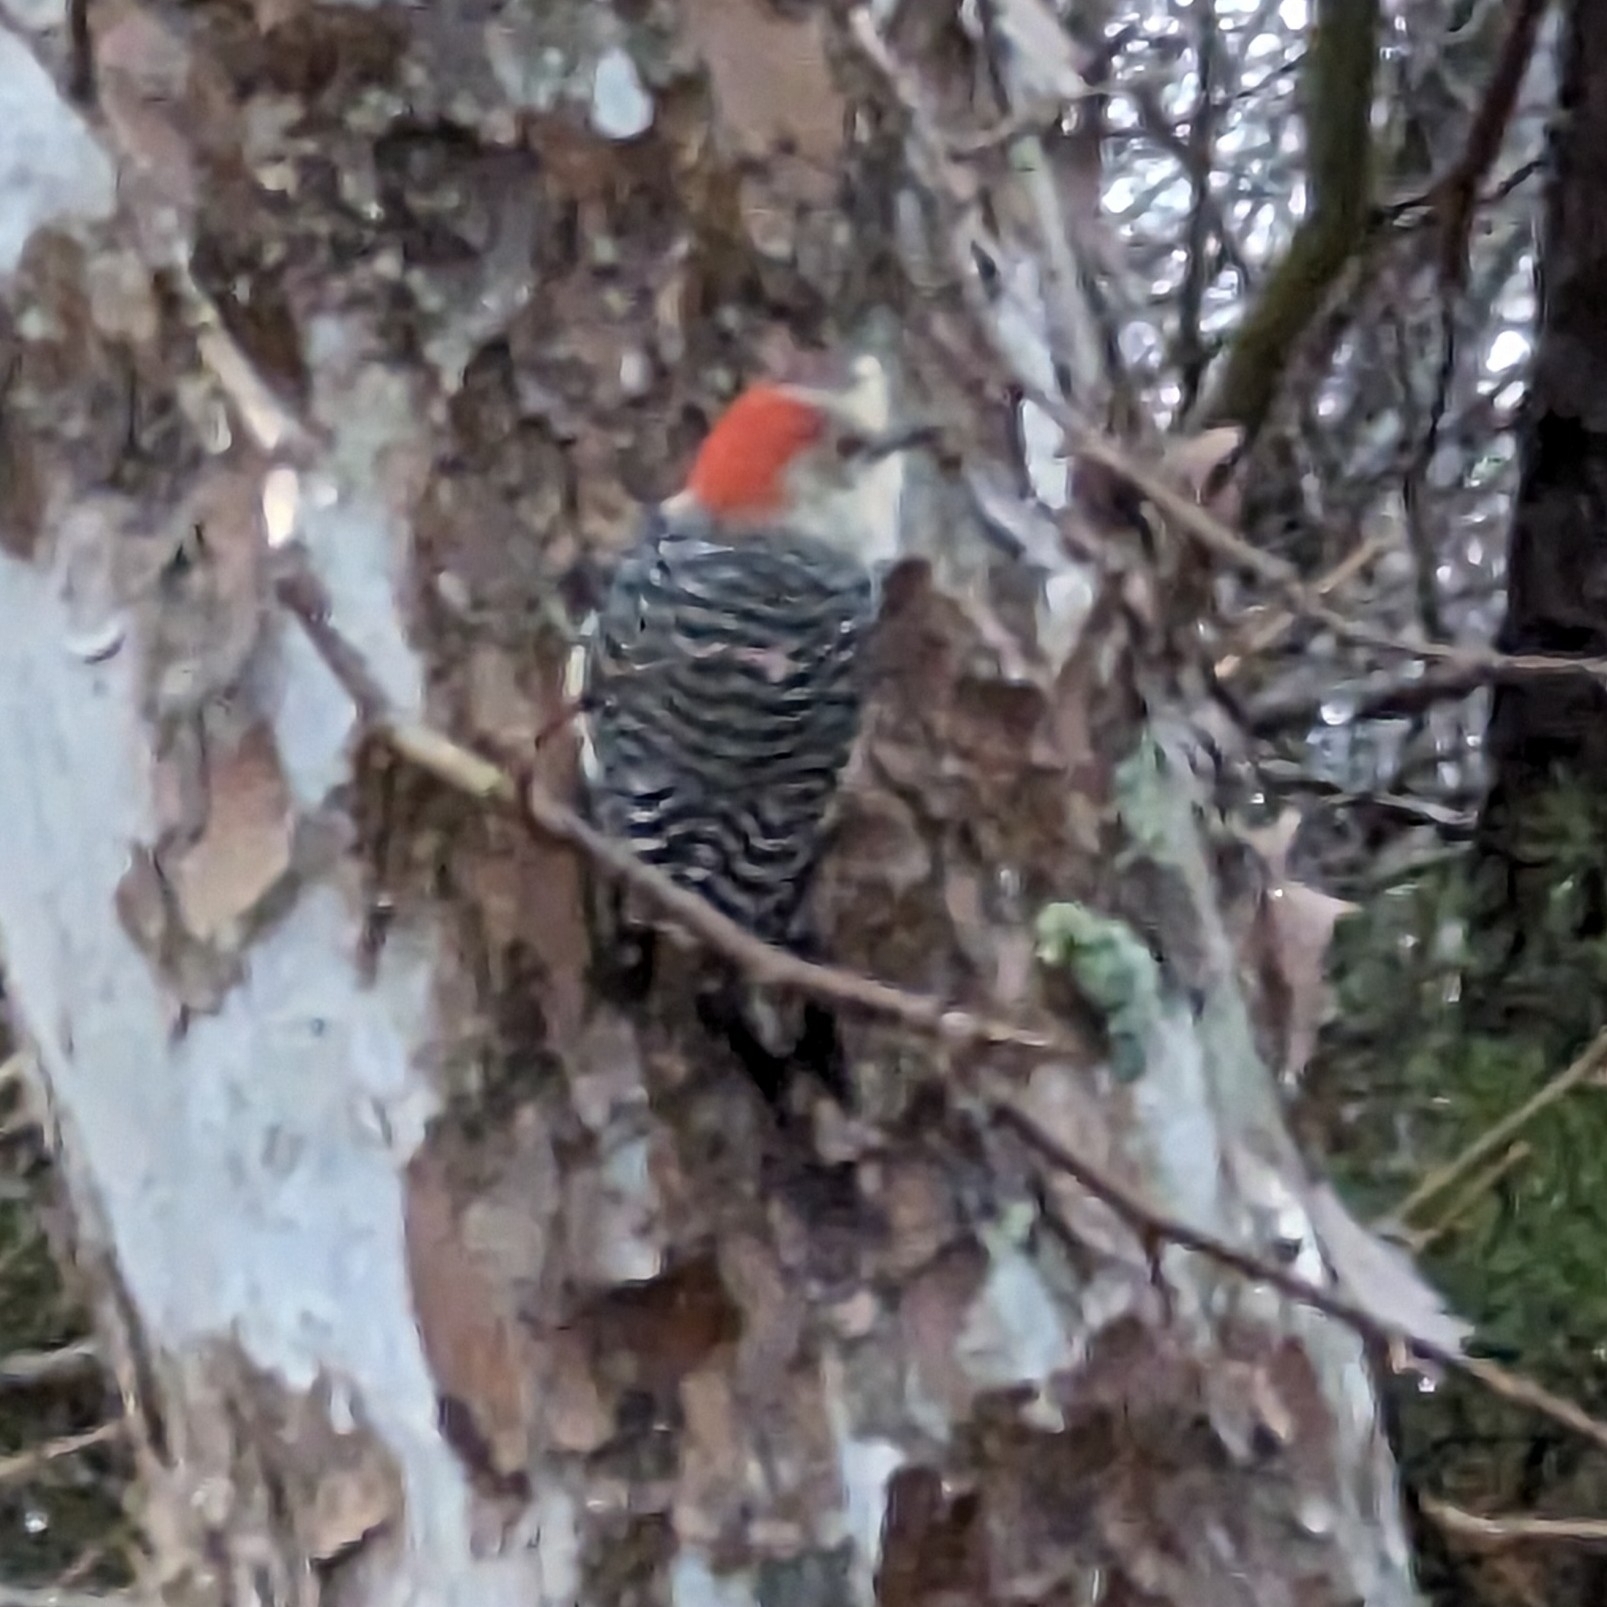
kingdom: Animalia
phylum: Chordata
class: Aves
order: Piciformes
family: Picidae
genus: Melanerpes
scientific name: Melanerpes carolinus
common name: Red-bellied woodpecker
